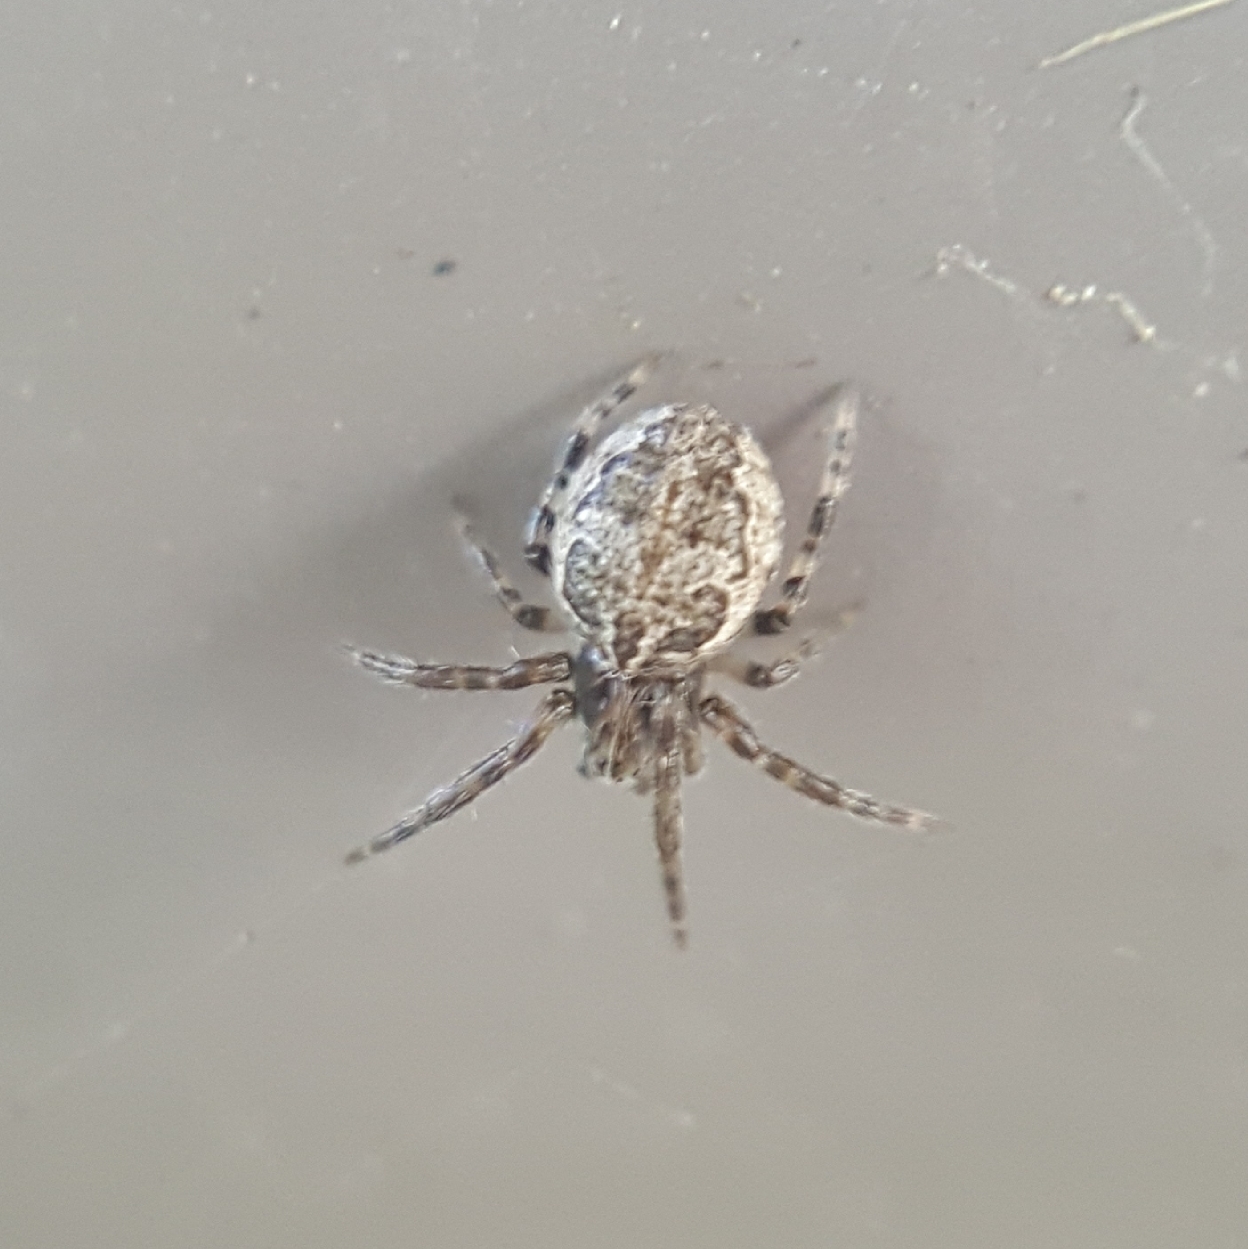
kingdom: Animalia
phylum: Arthropoda
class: Arachnida
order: Araneae
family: Araneidae
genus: Larinioides
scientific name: Larinioides sclopetarius
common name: Bridge orbweaver
